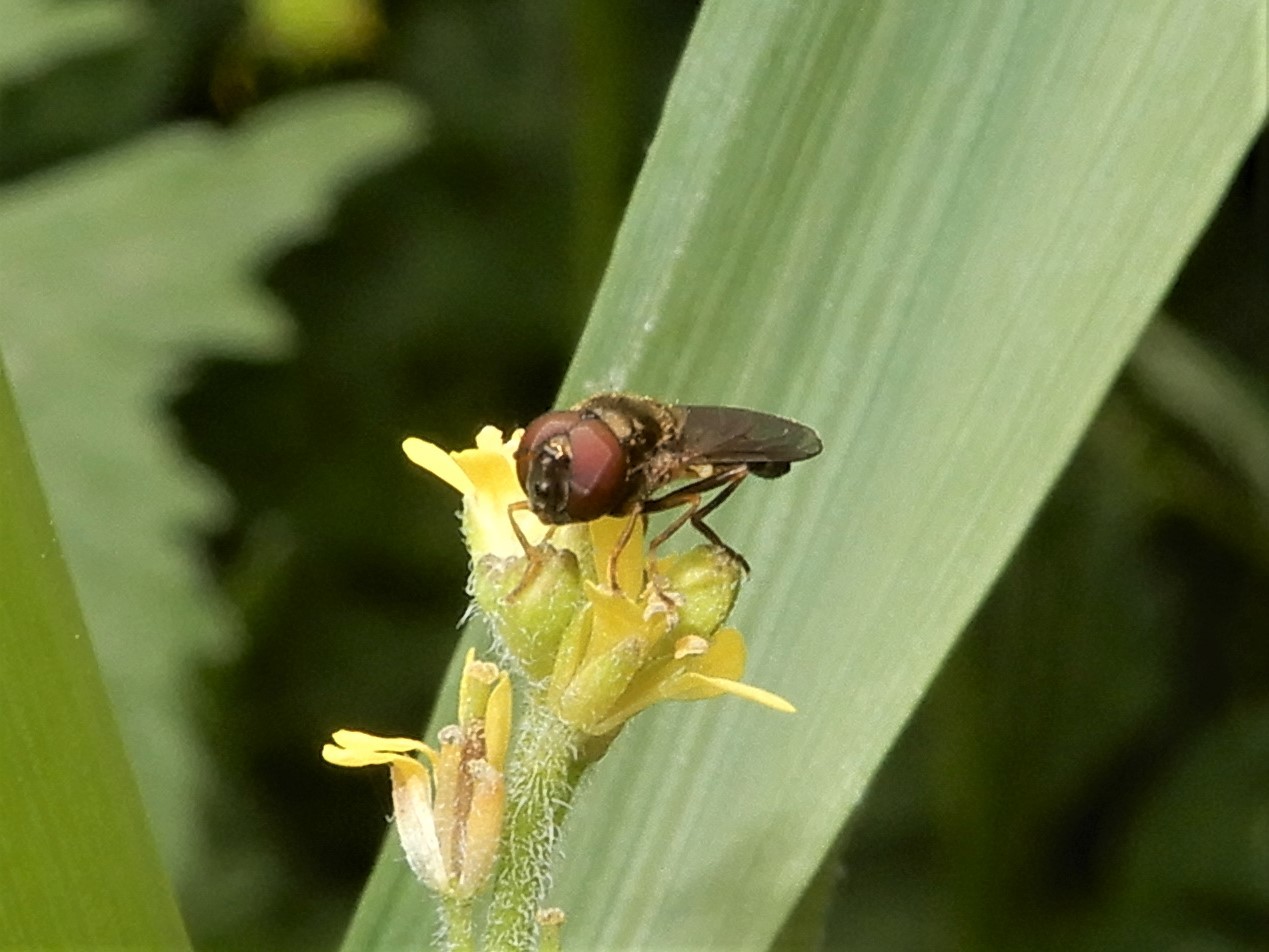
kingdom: Animalia
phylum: Arthropoda
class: Insecta
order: Diptera
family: Syrphidae
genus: Melanostoma
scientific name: Melanostoma fasciatum
